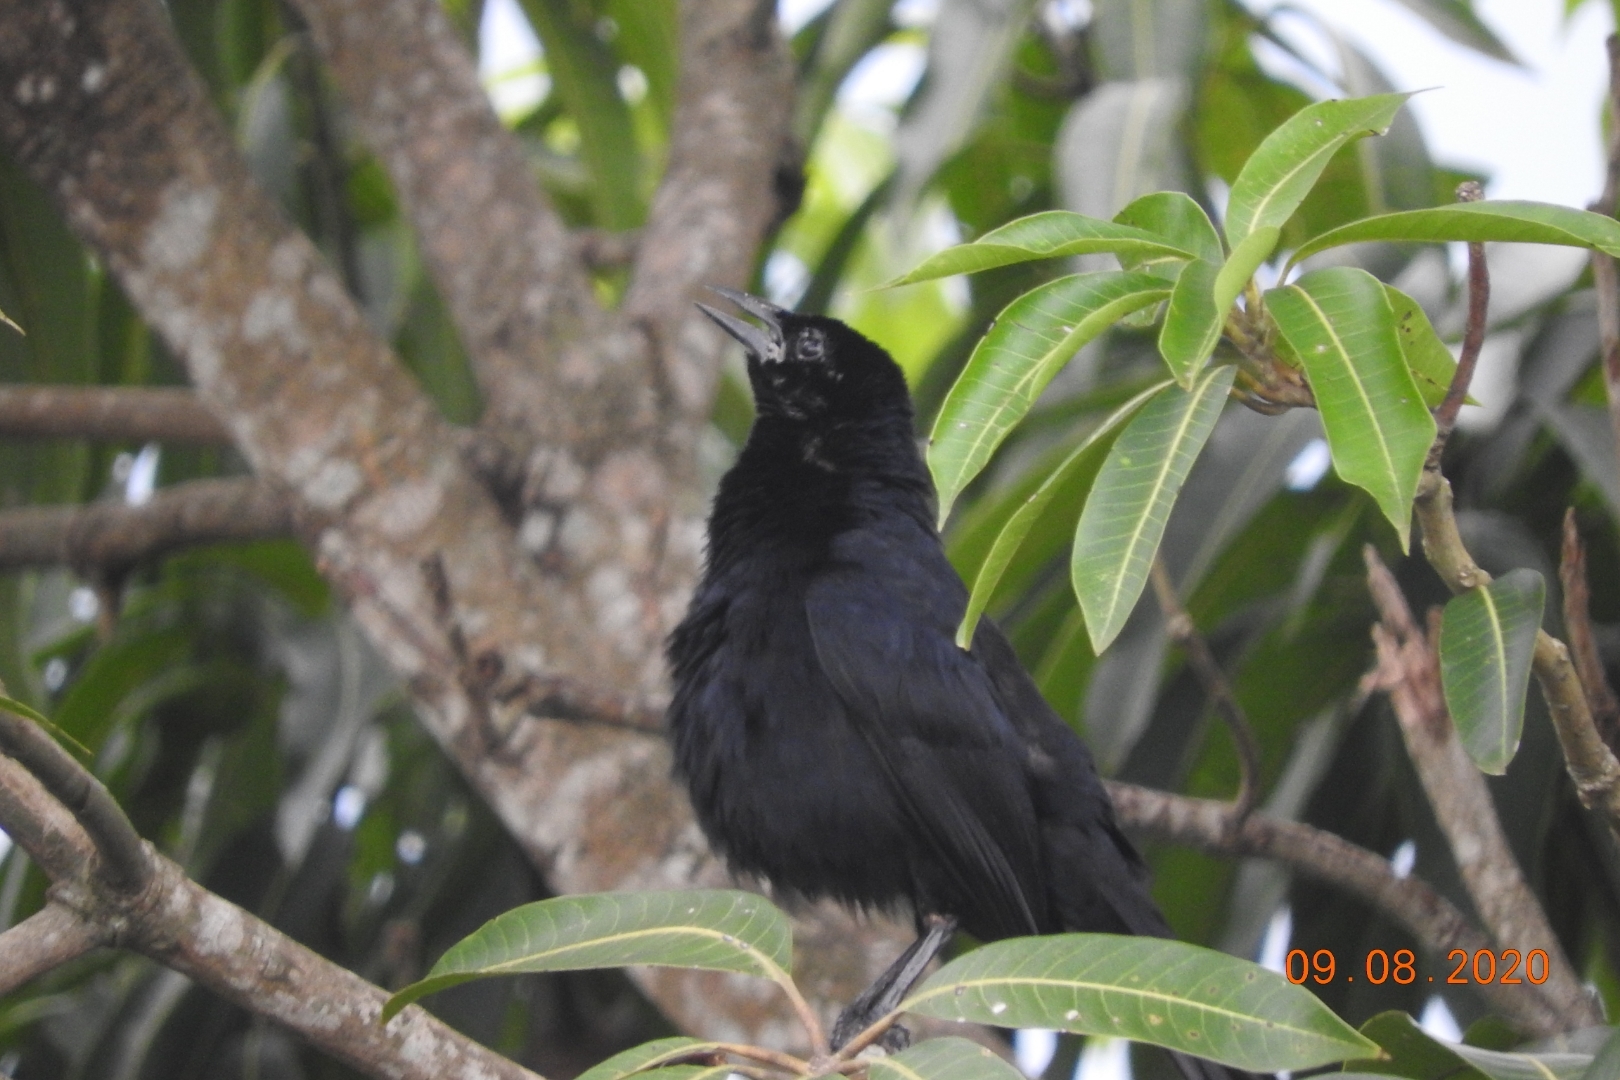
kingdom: Animalia
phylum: Chordata
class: Aves
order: Passeriformes
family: Icteridae
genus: Dives
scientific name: Dives dives
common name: Melodious blackbird
